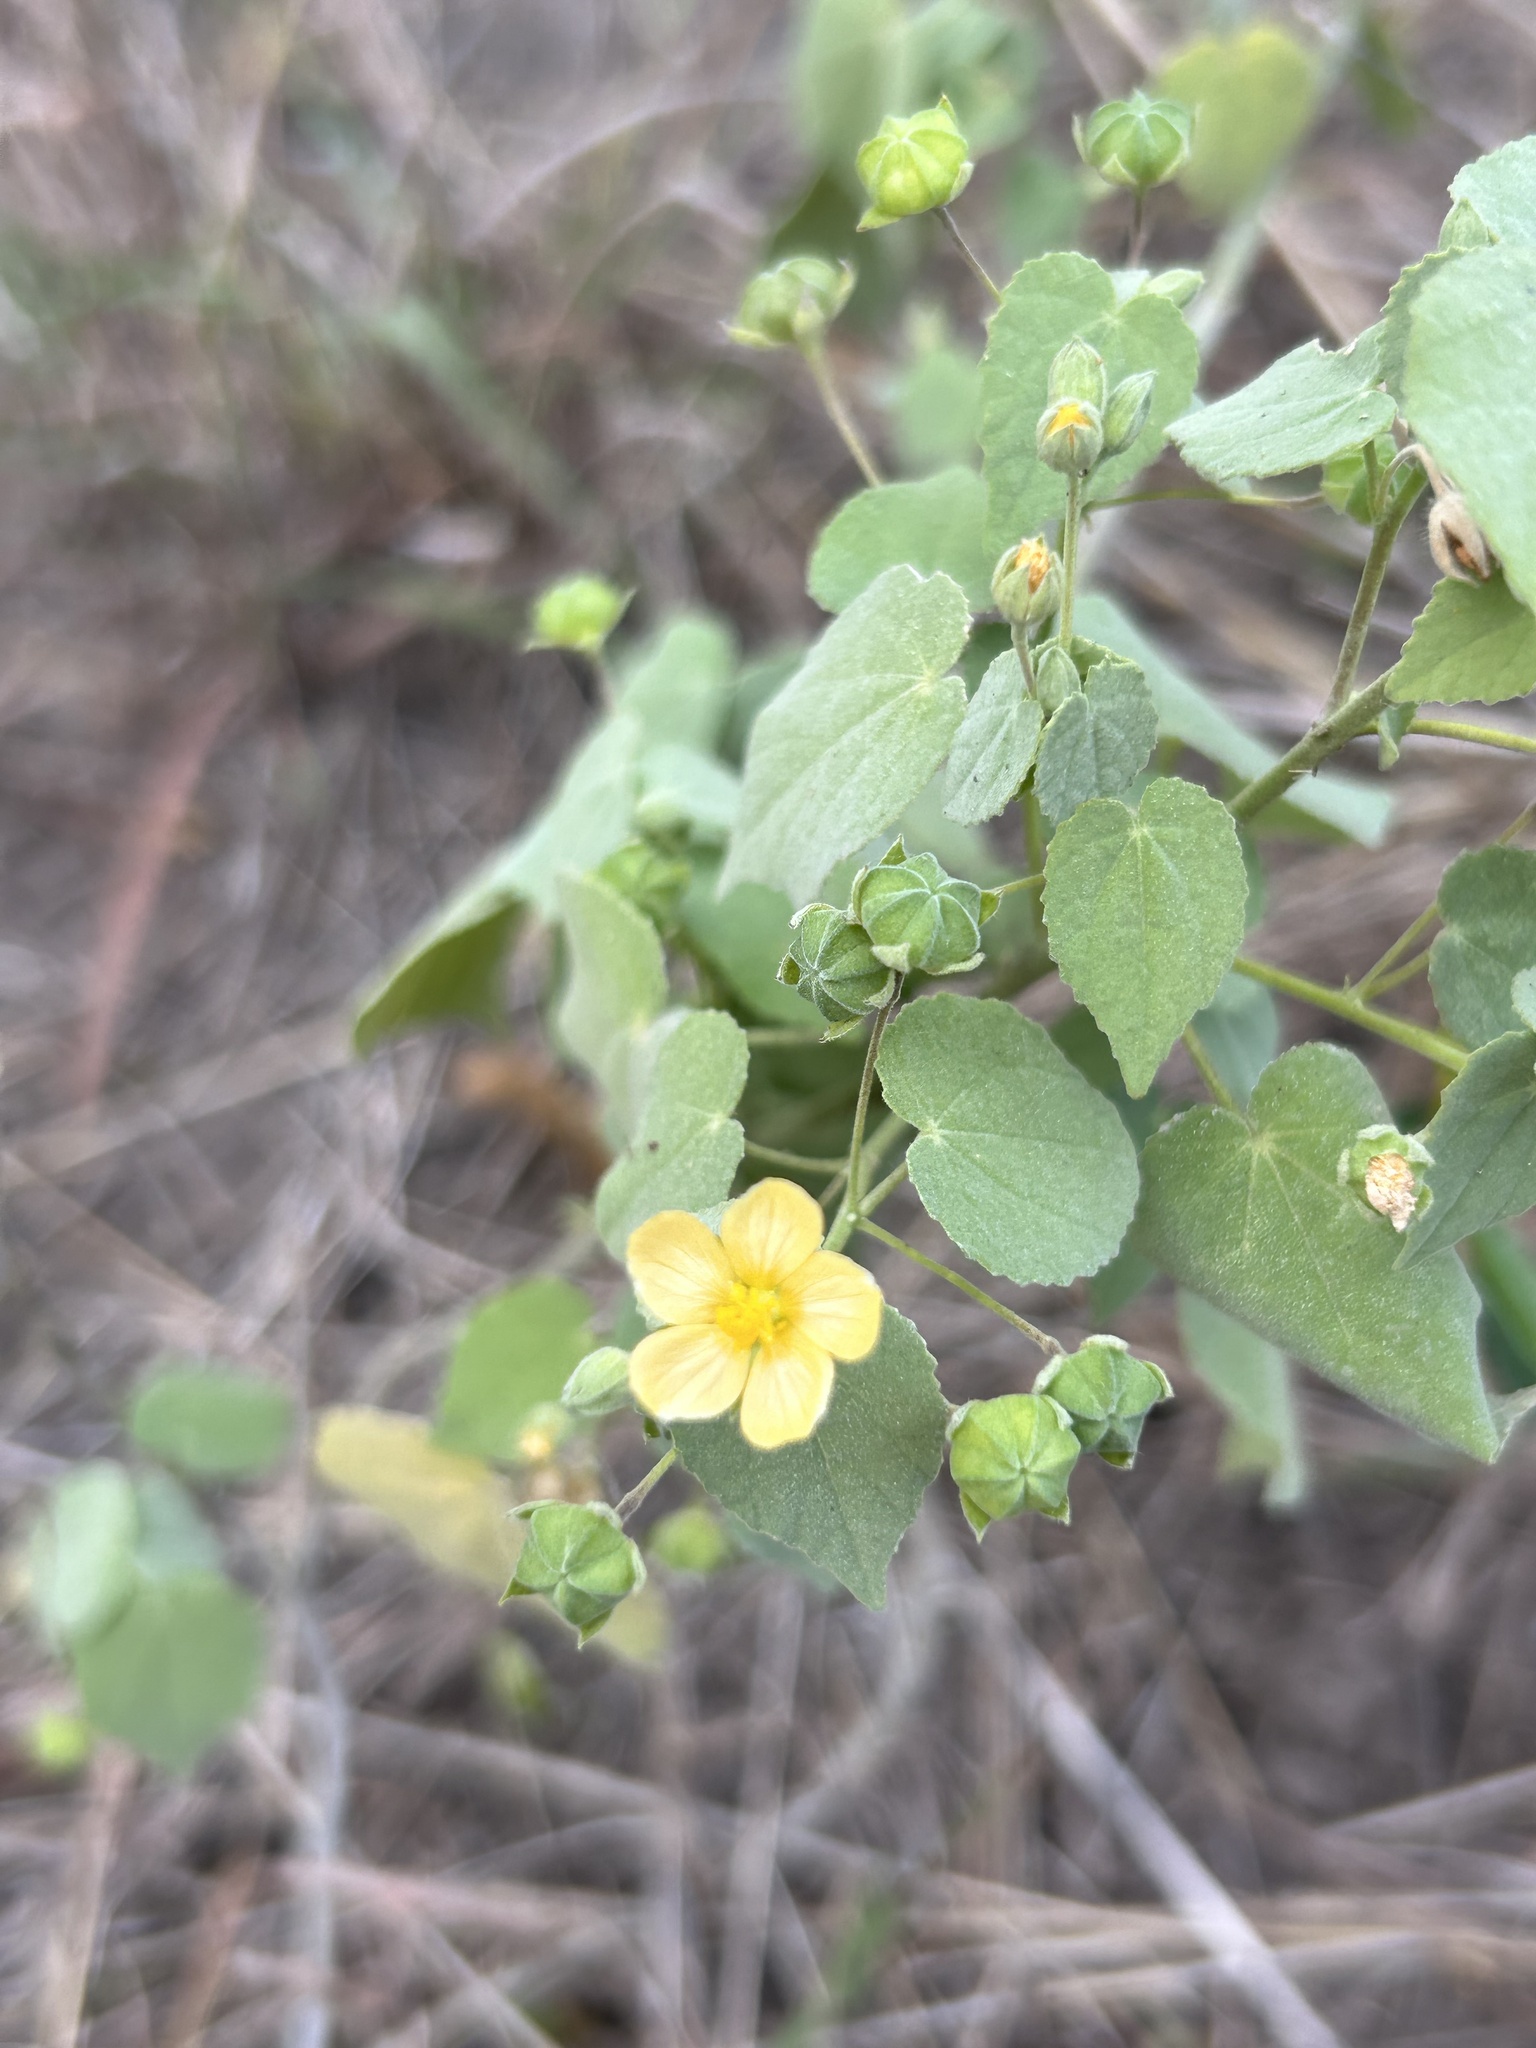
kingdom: Plantae
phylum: Tracheophyta
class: Magnoliopsida
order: Malvales
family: Malvaceae
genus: Abutilon
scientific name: Abutilon viscosum
